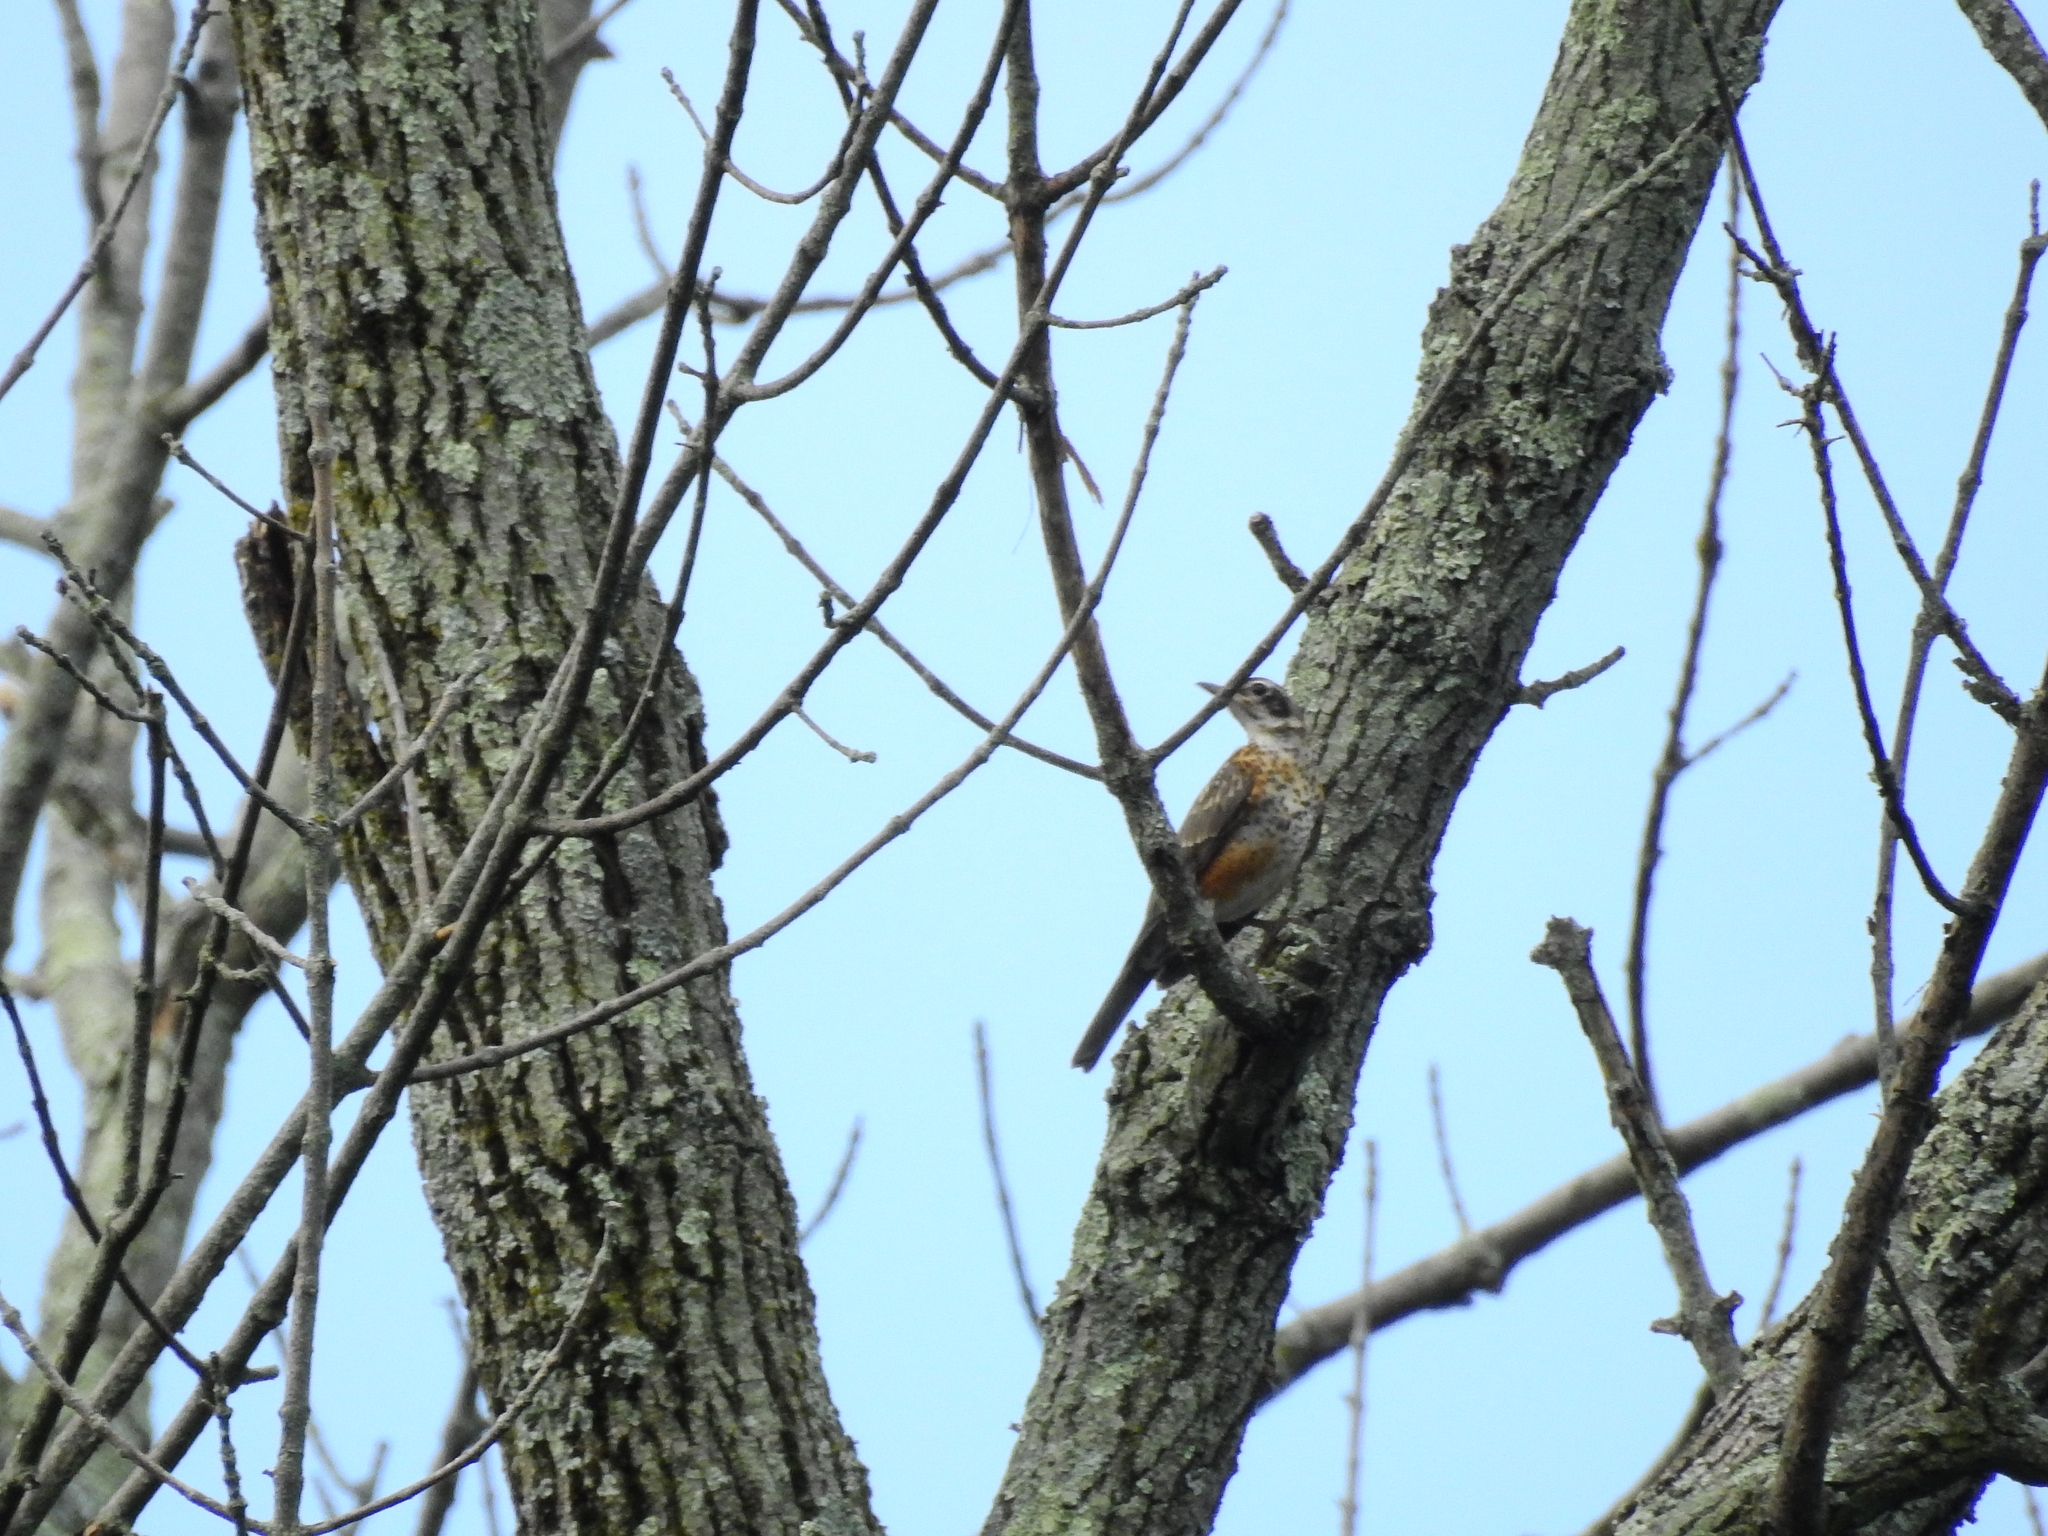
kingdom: Animalia
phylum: Chordata
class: Aves
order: Passeriformes
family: Turdidae
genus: Turdus
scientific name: Turdus migratorius
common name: American robin
